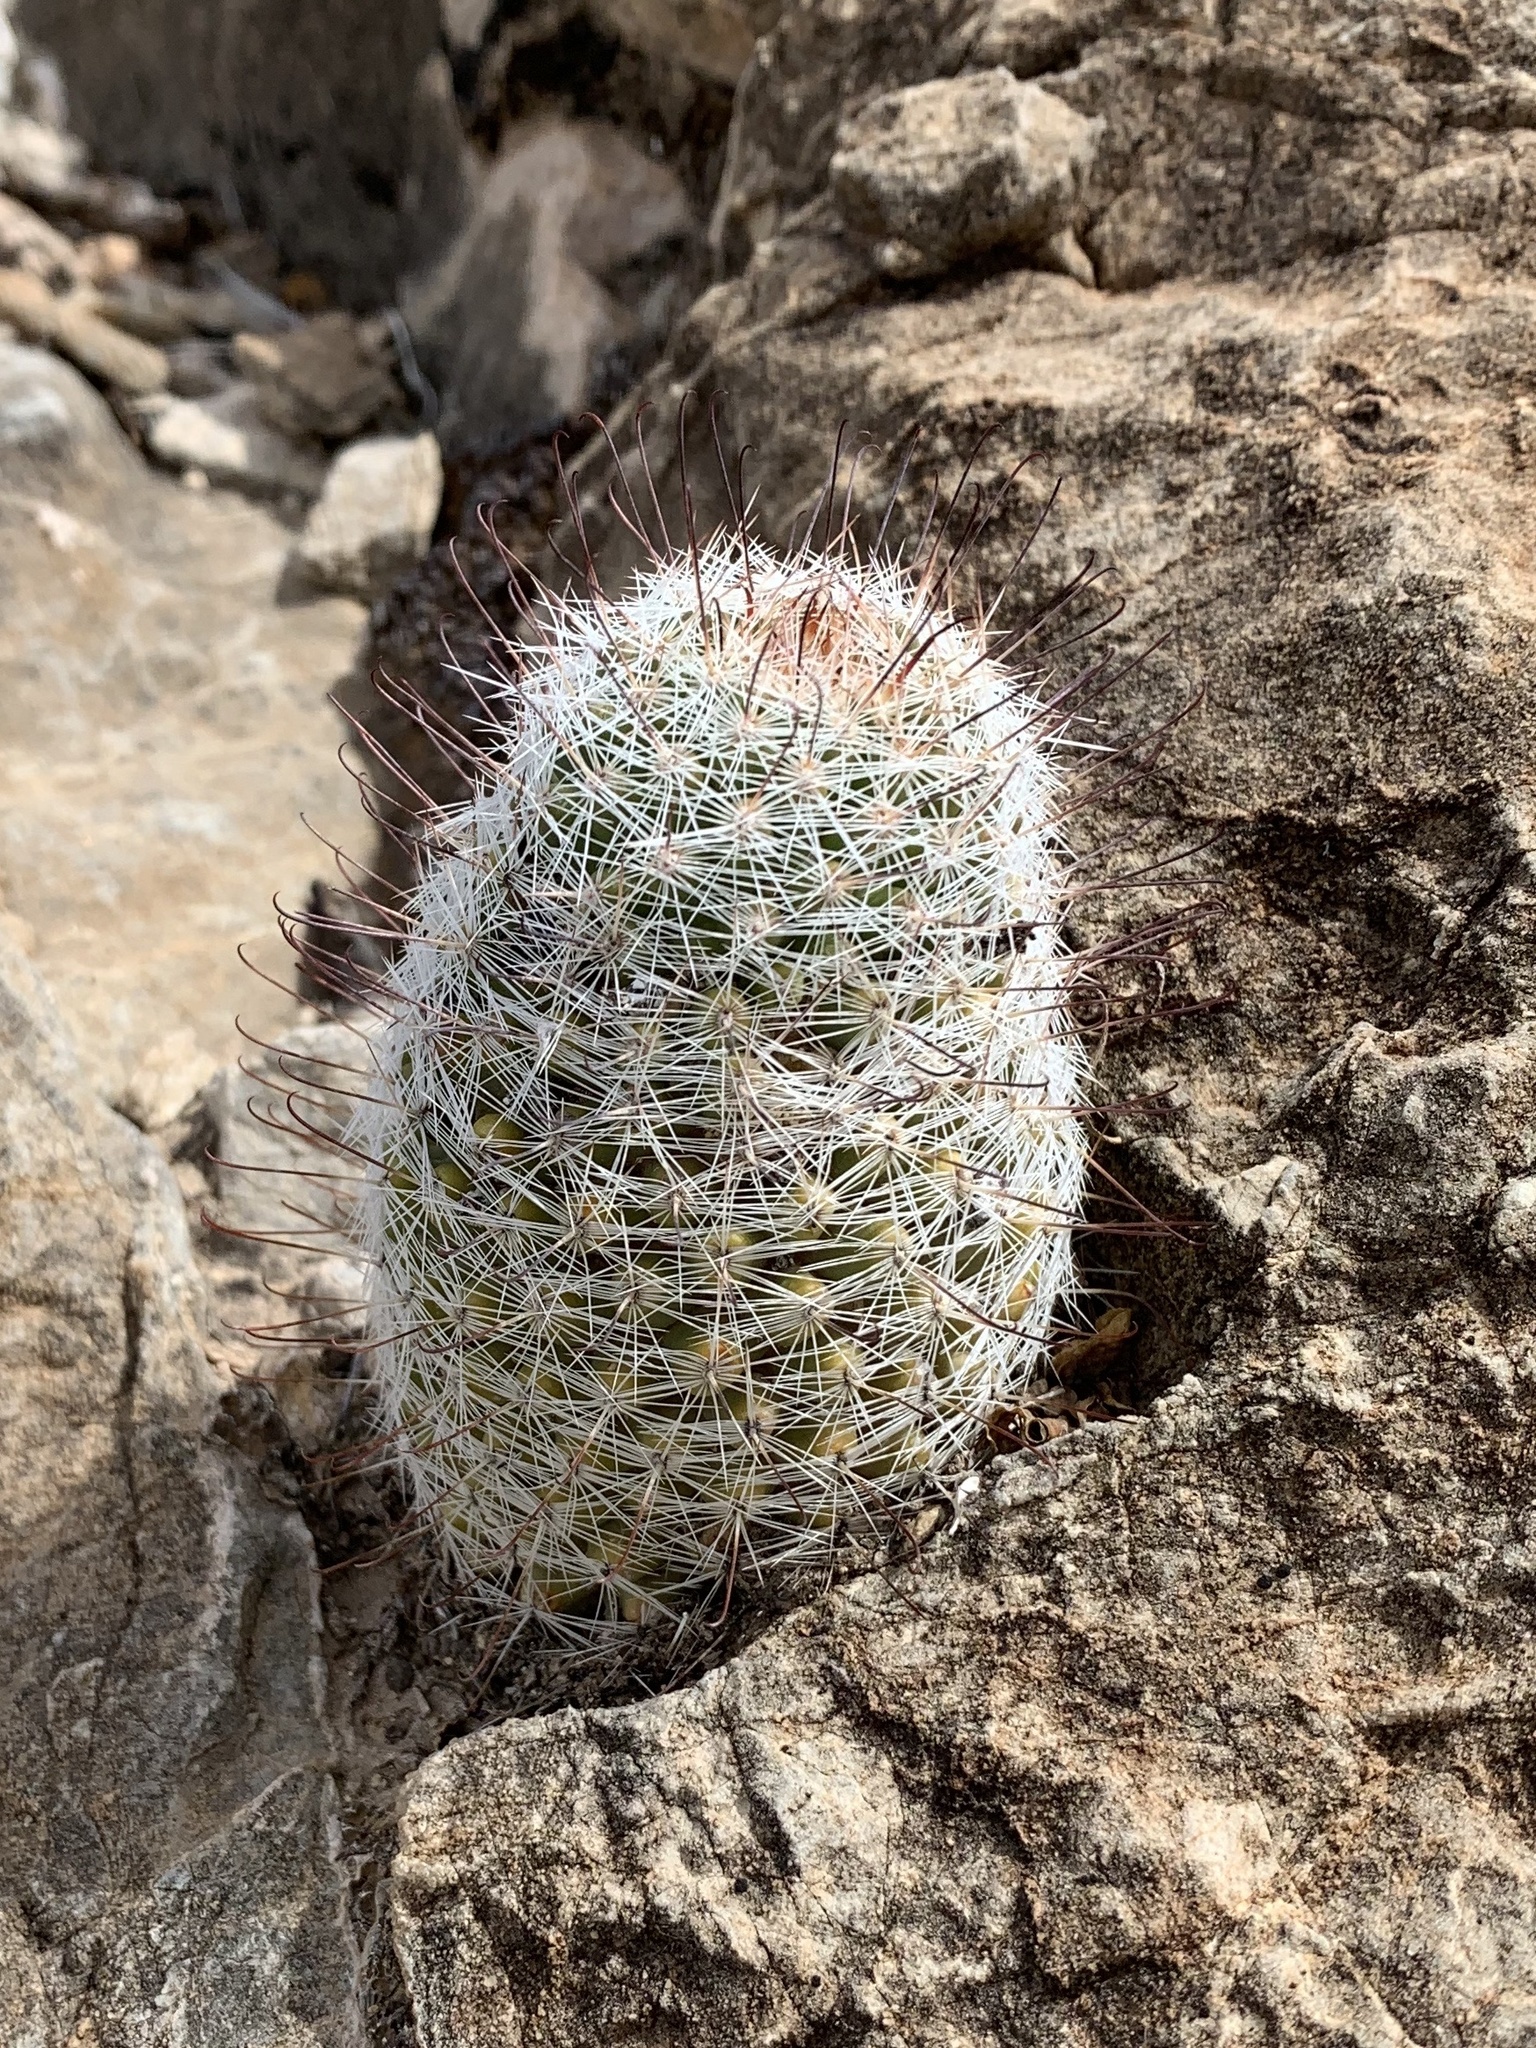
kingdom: Plantae
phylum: Tracheophyta
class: Magnoliopsida
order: Caryophyllales
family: Cactaceae
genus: Cochemiea
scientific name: Cochemiea grahamii
